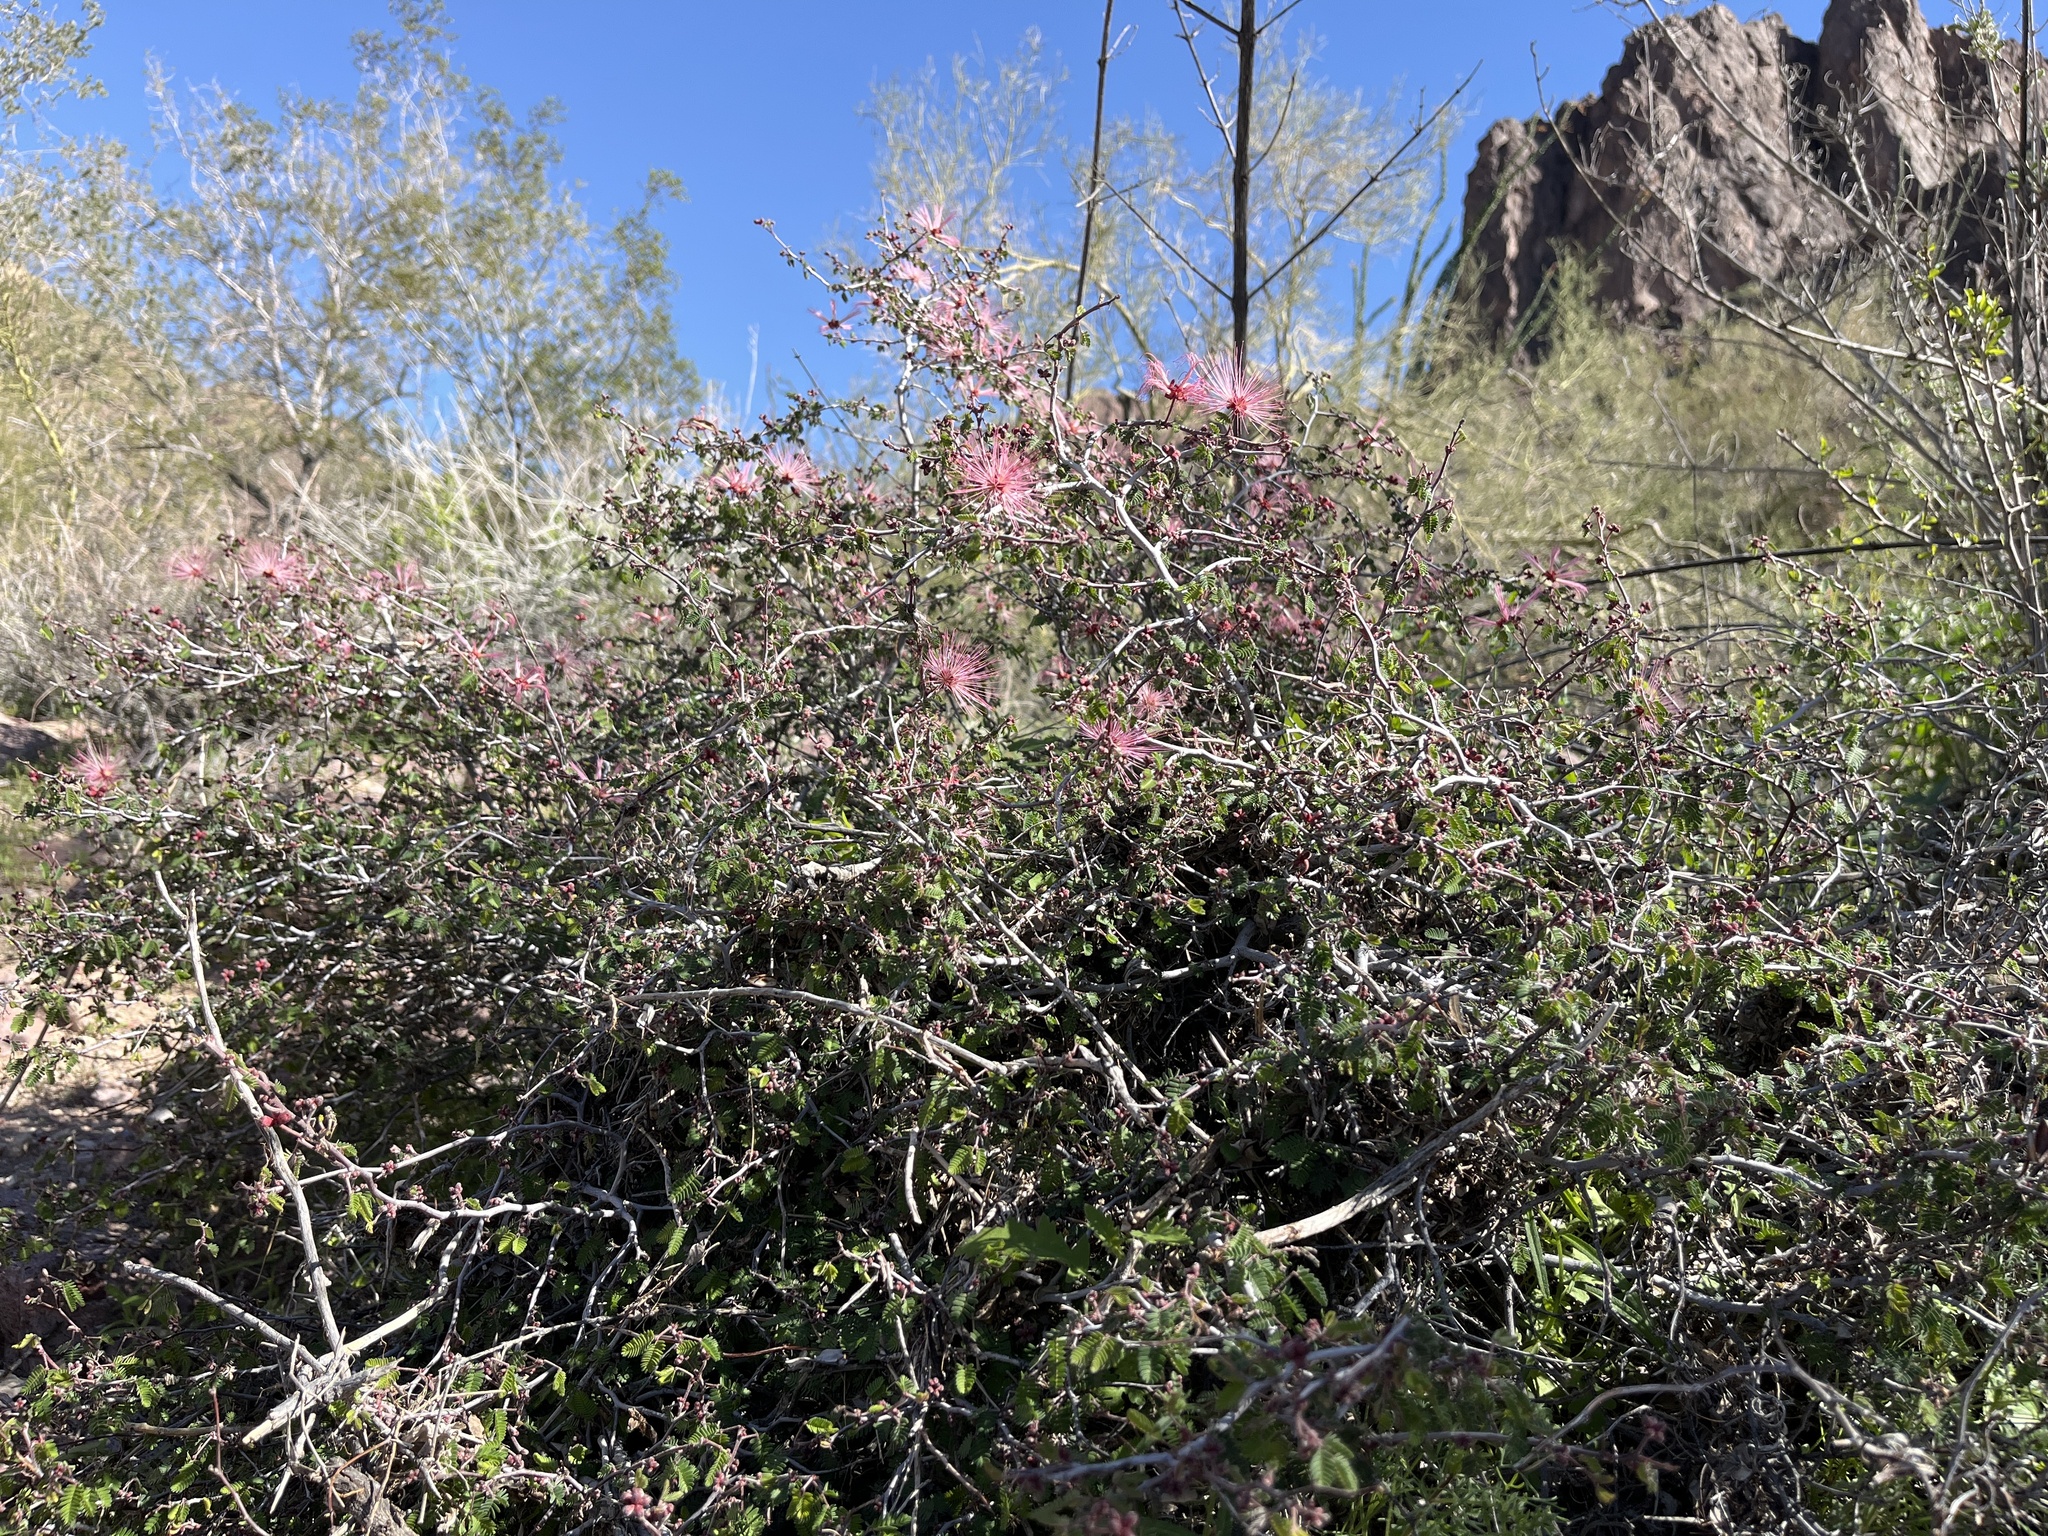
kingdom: Plantae
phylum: Tracheophyta
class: Magnoliopsida
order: Fabales
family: Fabaceae
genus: Calliandra
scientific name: Calliandra eriophylla
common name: Fairy-duster
